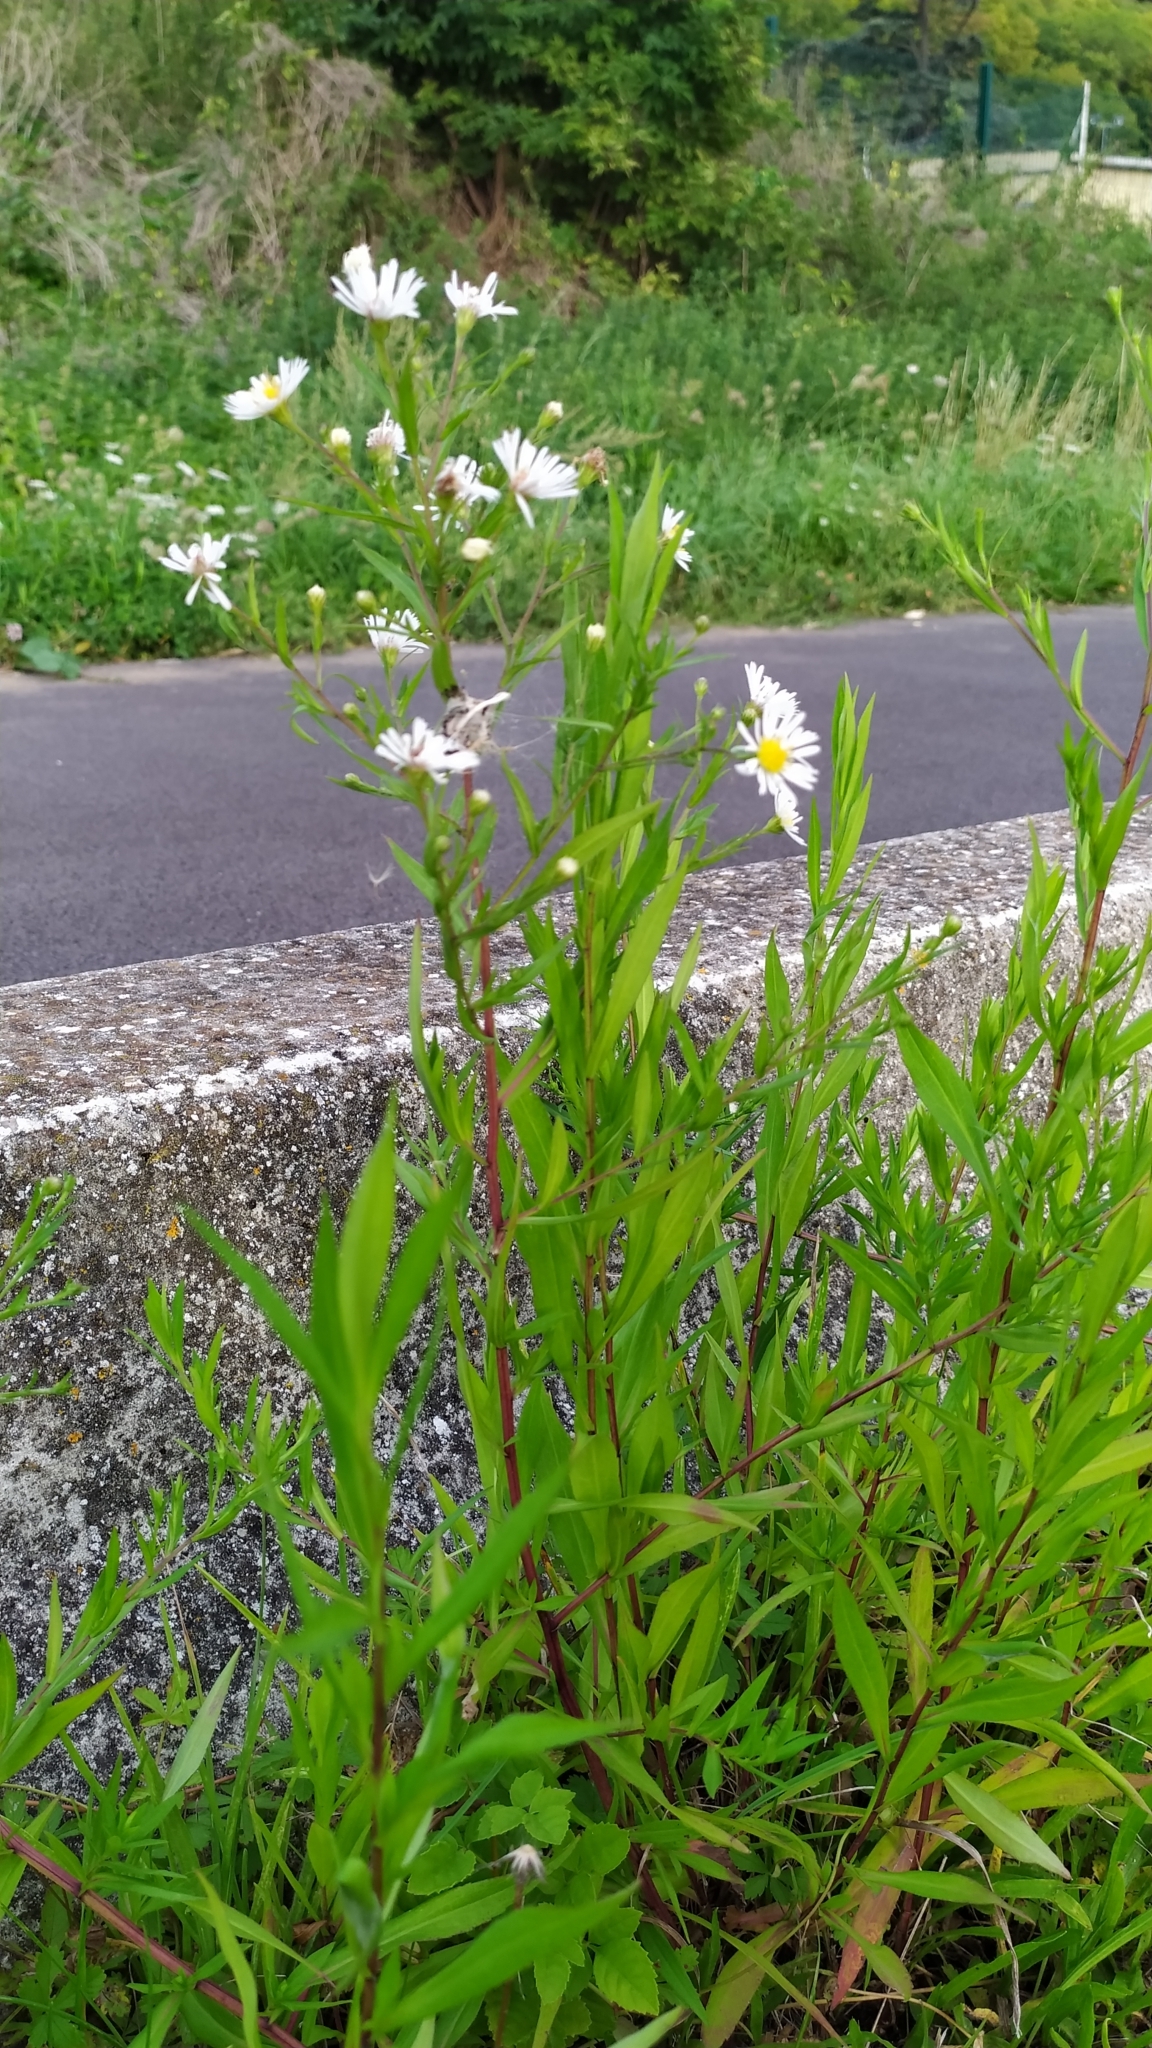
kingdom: Plantae
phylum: Tracheophyta
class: Magnoliopsida
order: Asterales
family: Asteraceae
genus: Symphyotrichum
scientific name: Symphyotrichum lanceolatum
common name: Panicled aster
